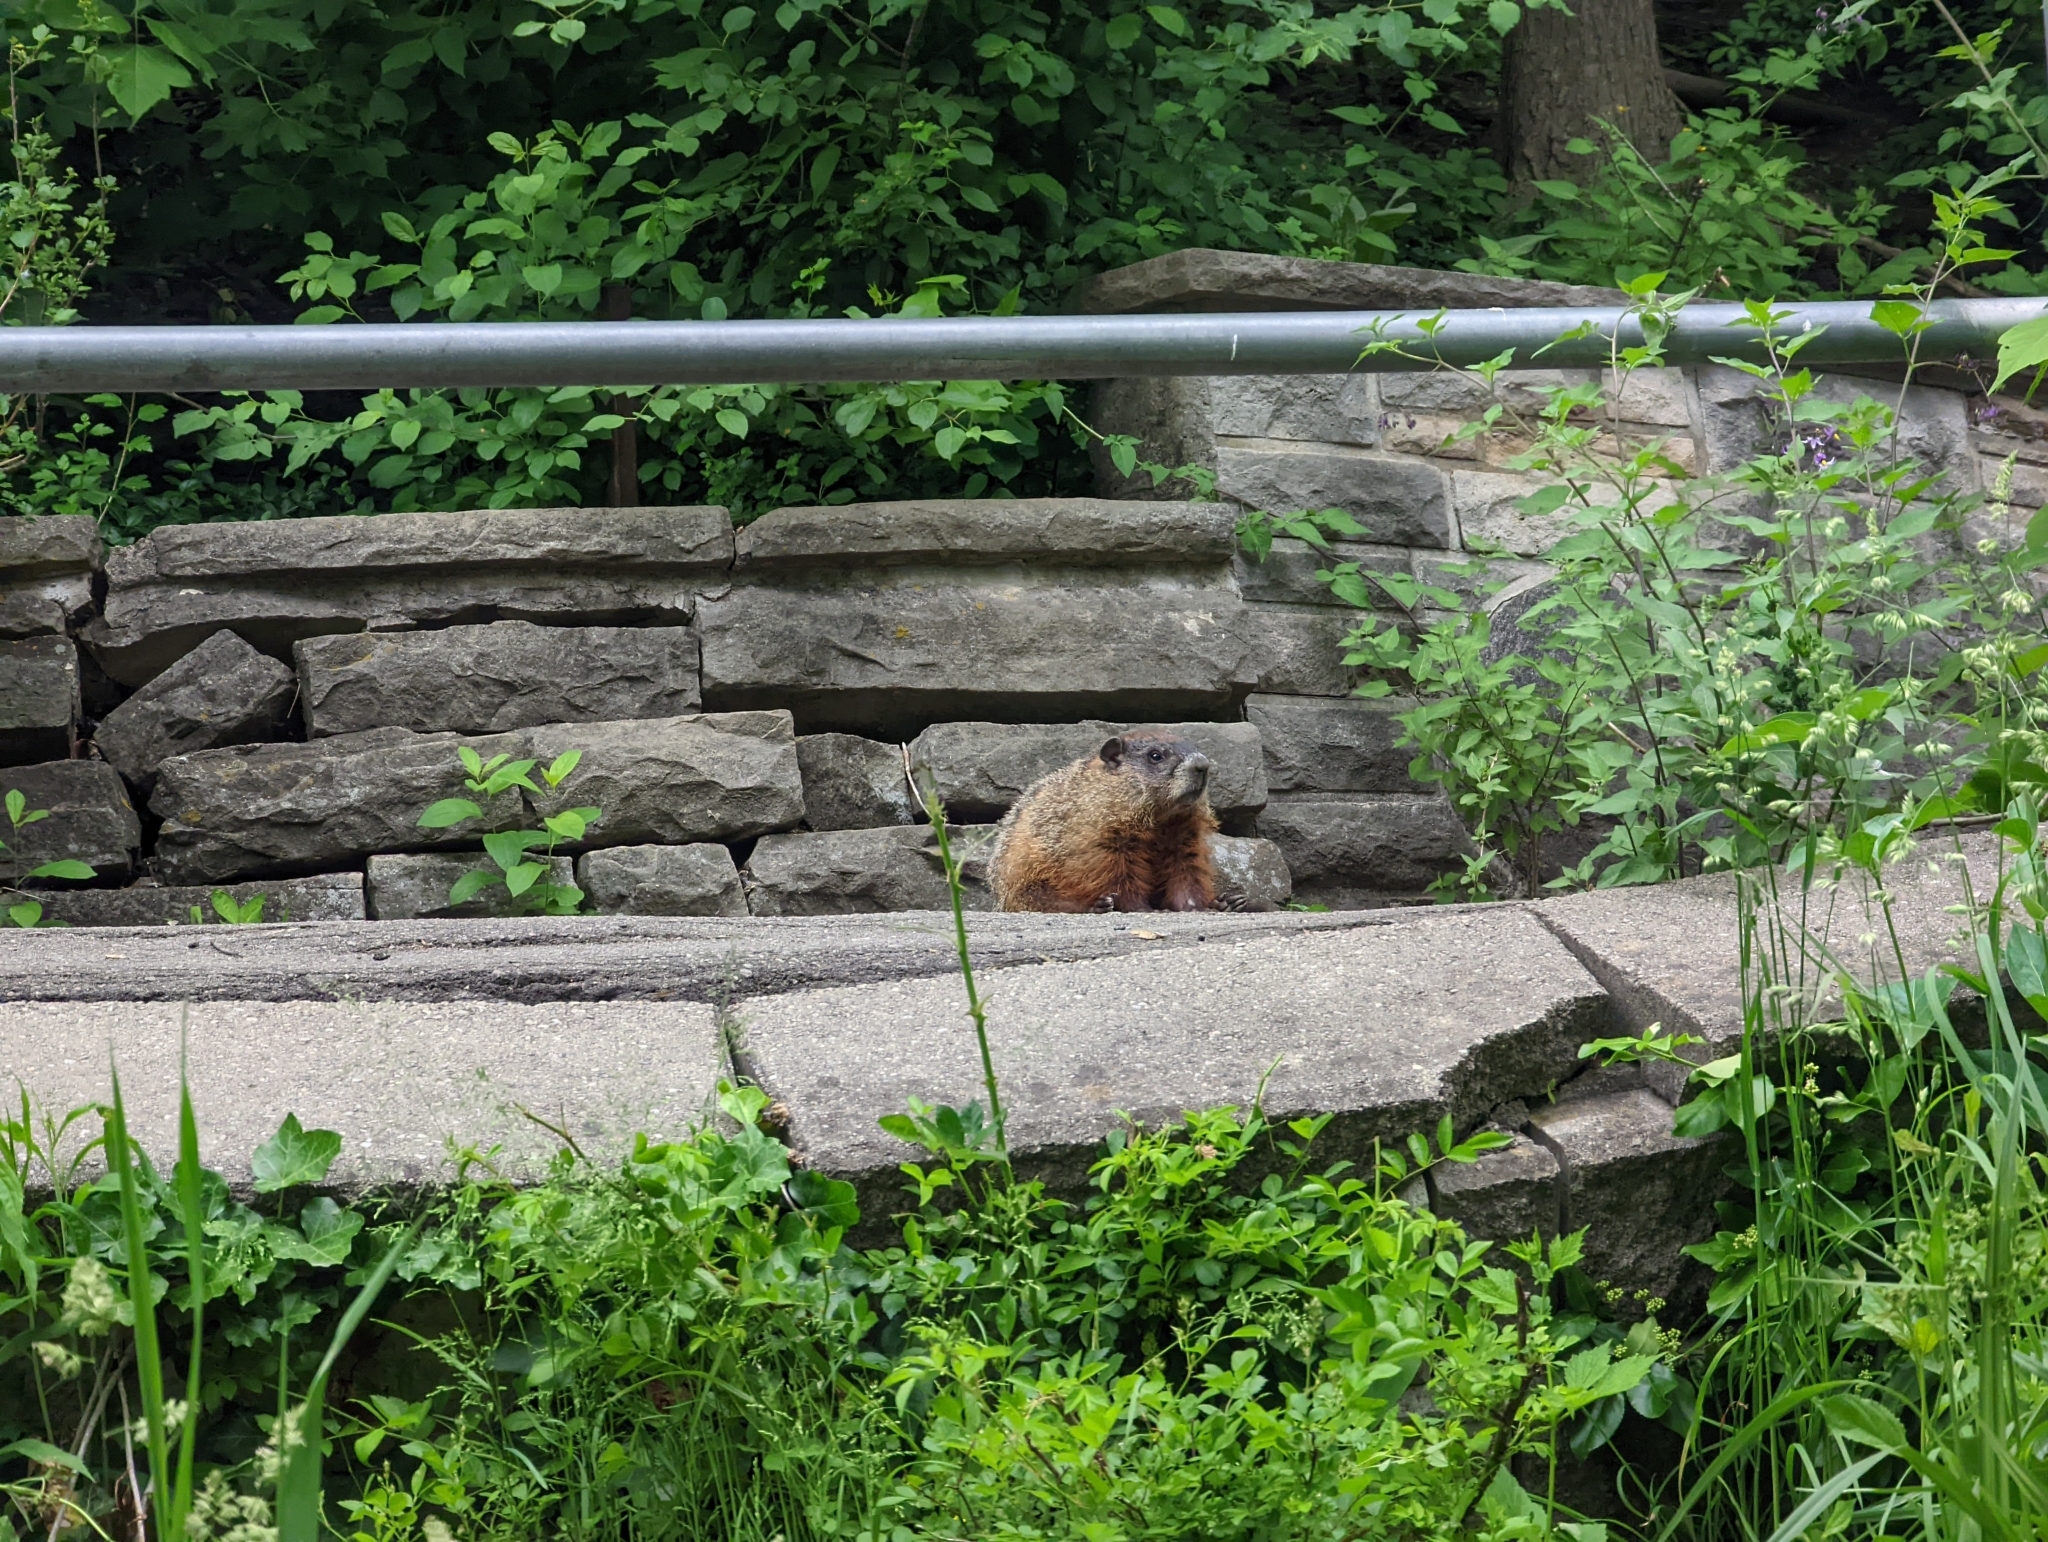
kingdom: Animalia
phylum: Chordata
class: Mammalia
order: Rodentia
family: Sciuridae
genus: Marmota
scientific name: Marmota monax
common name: Groundhog
